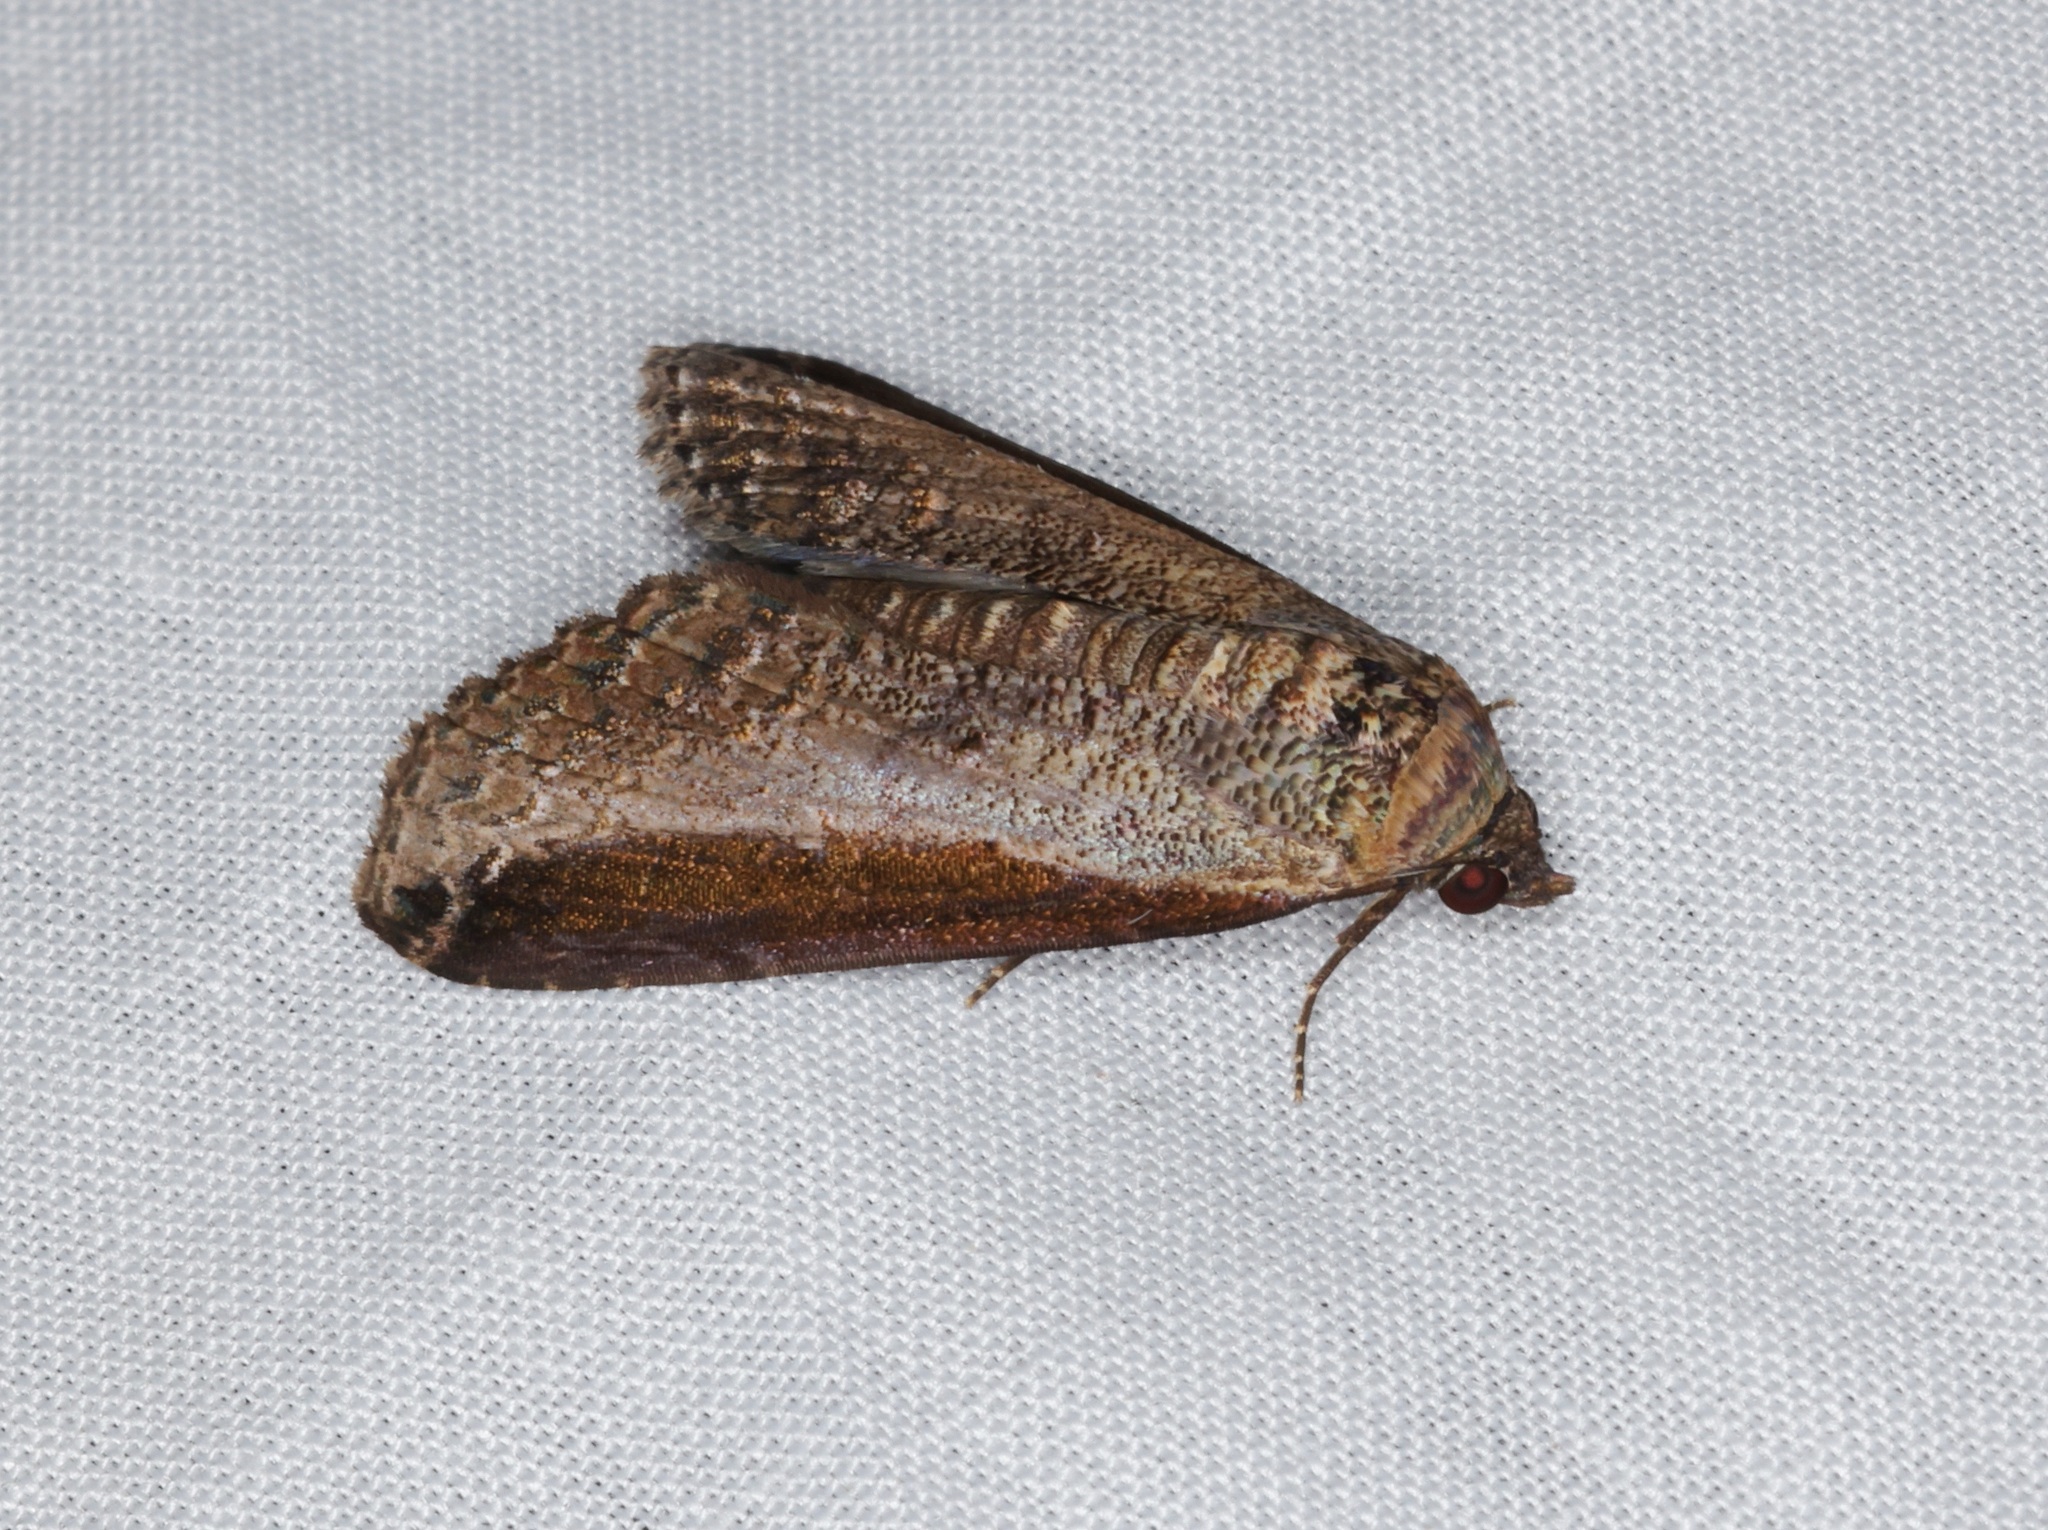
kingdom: Animalia
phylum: Arthropoda
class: Insecta
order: Lepidoptera
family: Euteliidae
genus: Lophoptera
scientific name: Lophoptera squammigera
